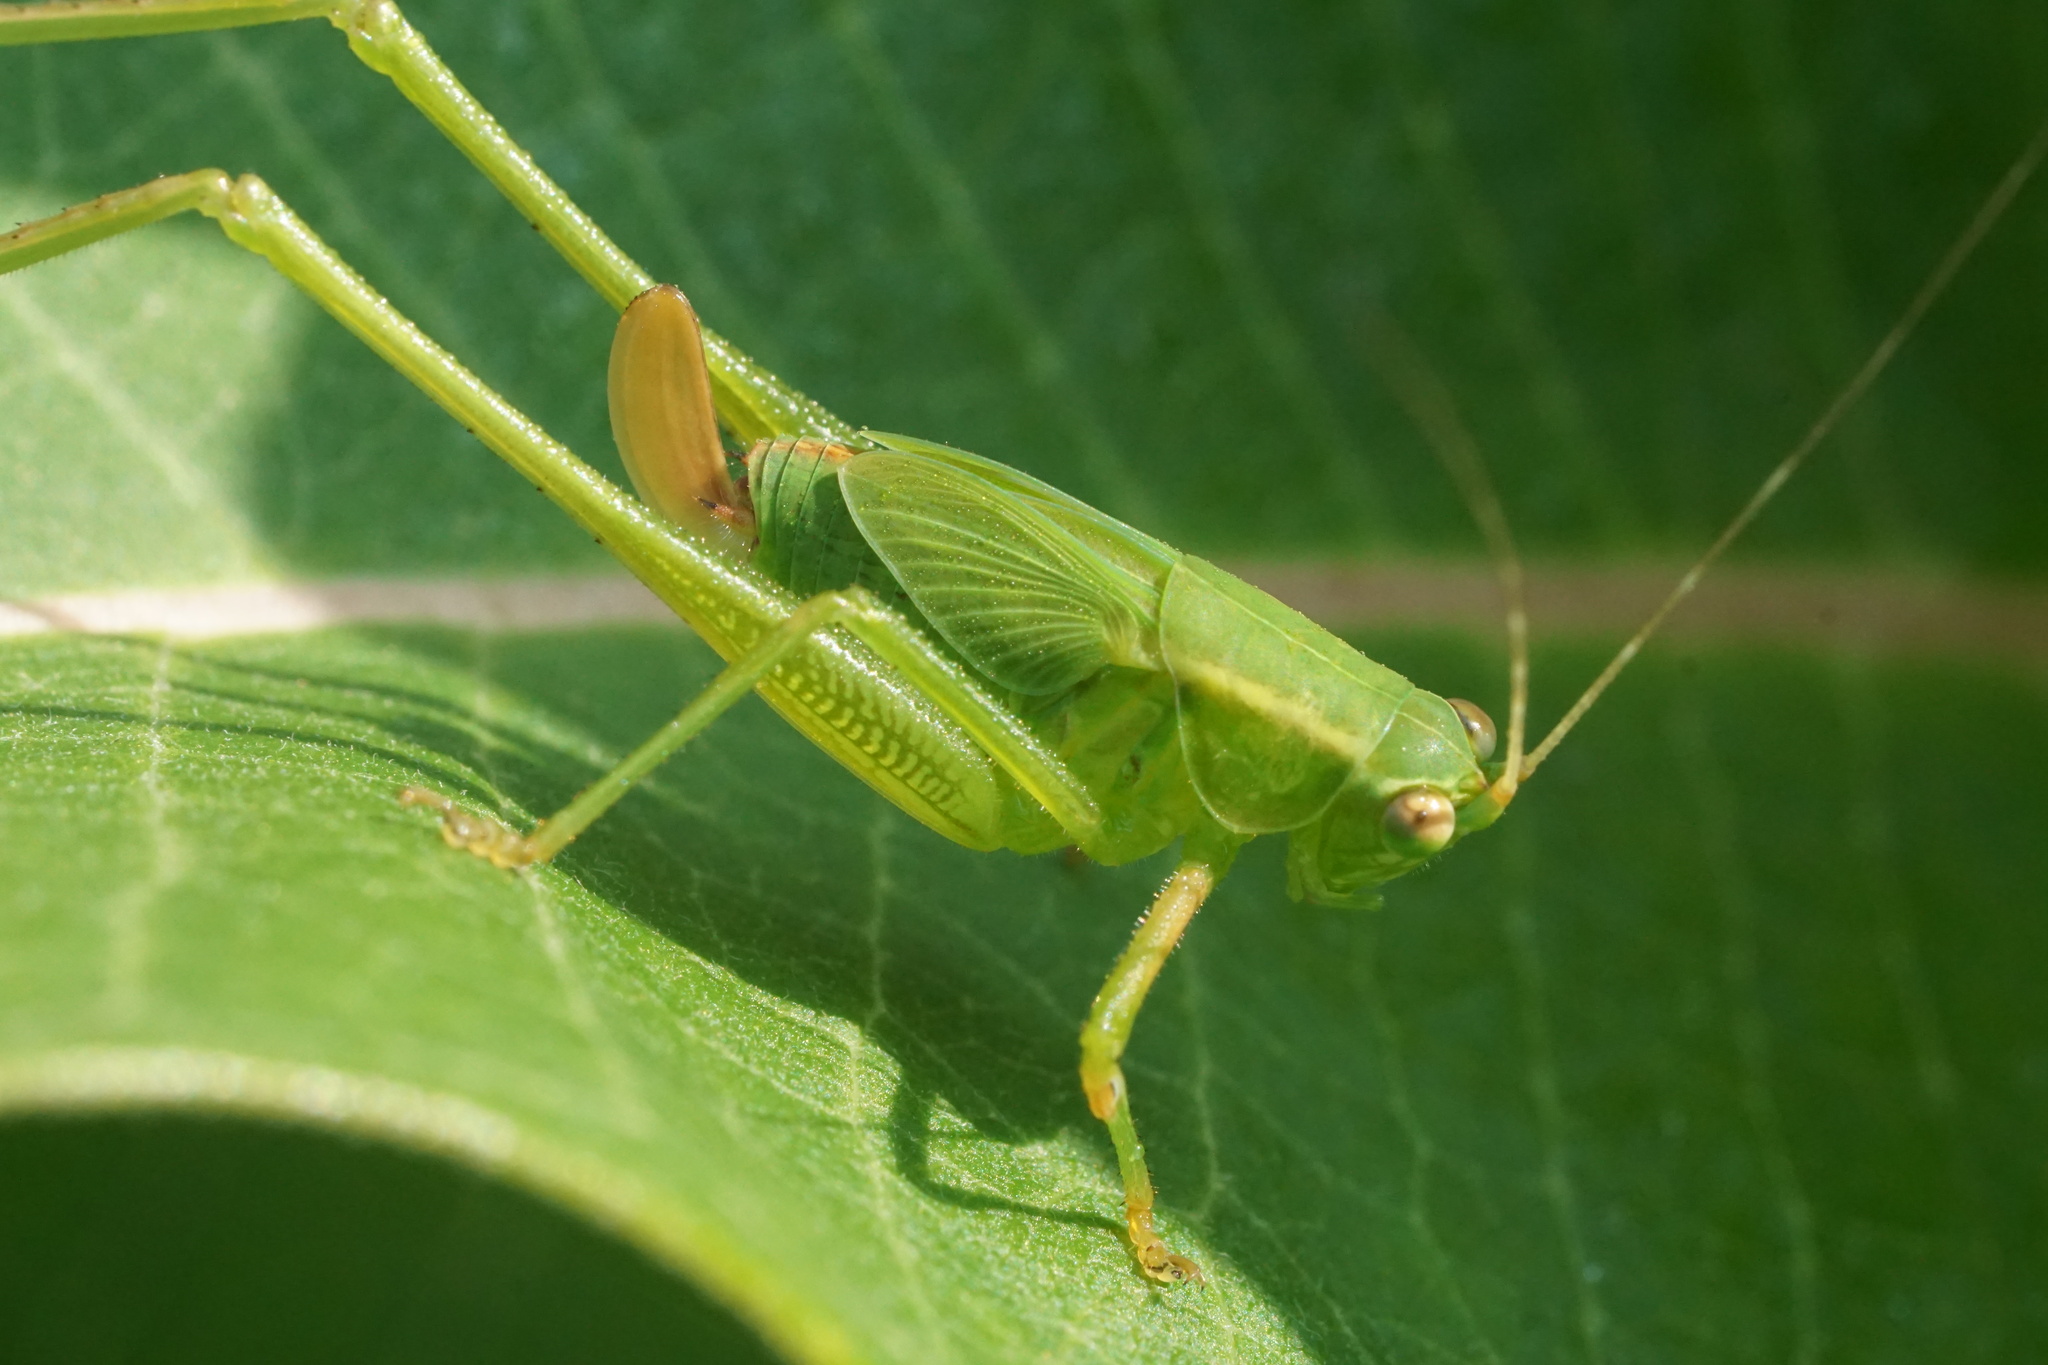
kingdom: Animalia
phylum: Arthropoda
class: Insecta
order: Orthoptera
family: Tettigoniidae
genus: Scudderia
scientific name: Scudderia furcata
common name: Fork-tailed bush katydid
